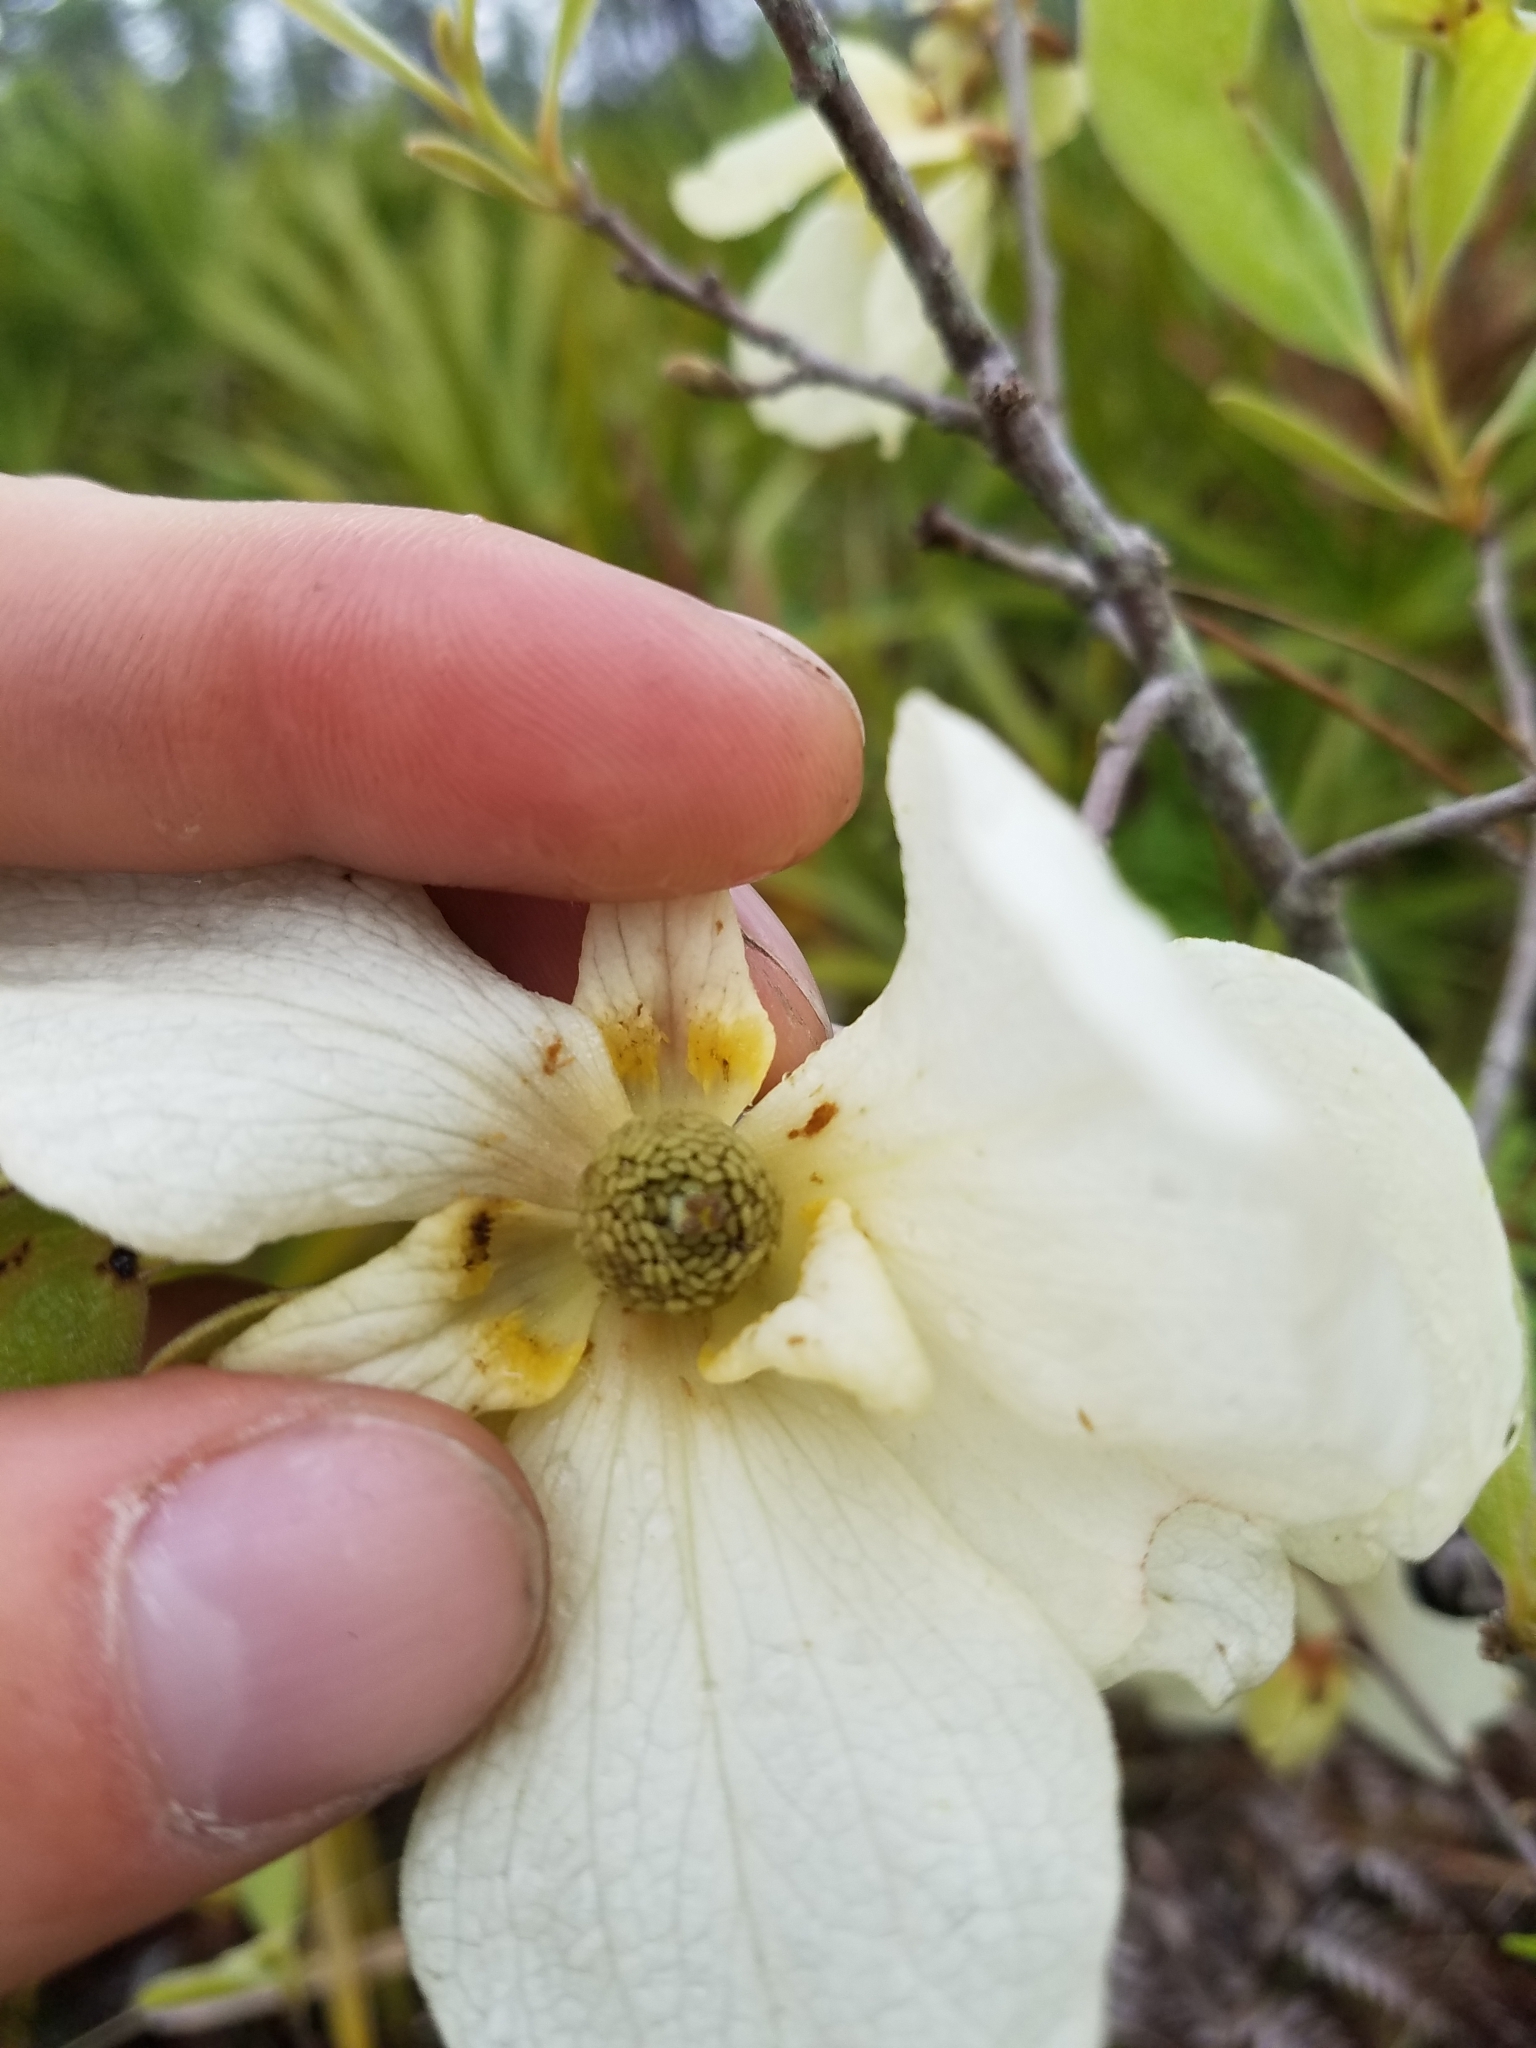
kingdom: Plantae
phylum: Tracheophyta
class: Magnoliopsida
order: Magnoliales
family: Annonaceae
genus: Asimina
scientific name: Asimina speciosa
